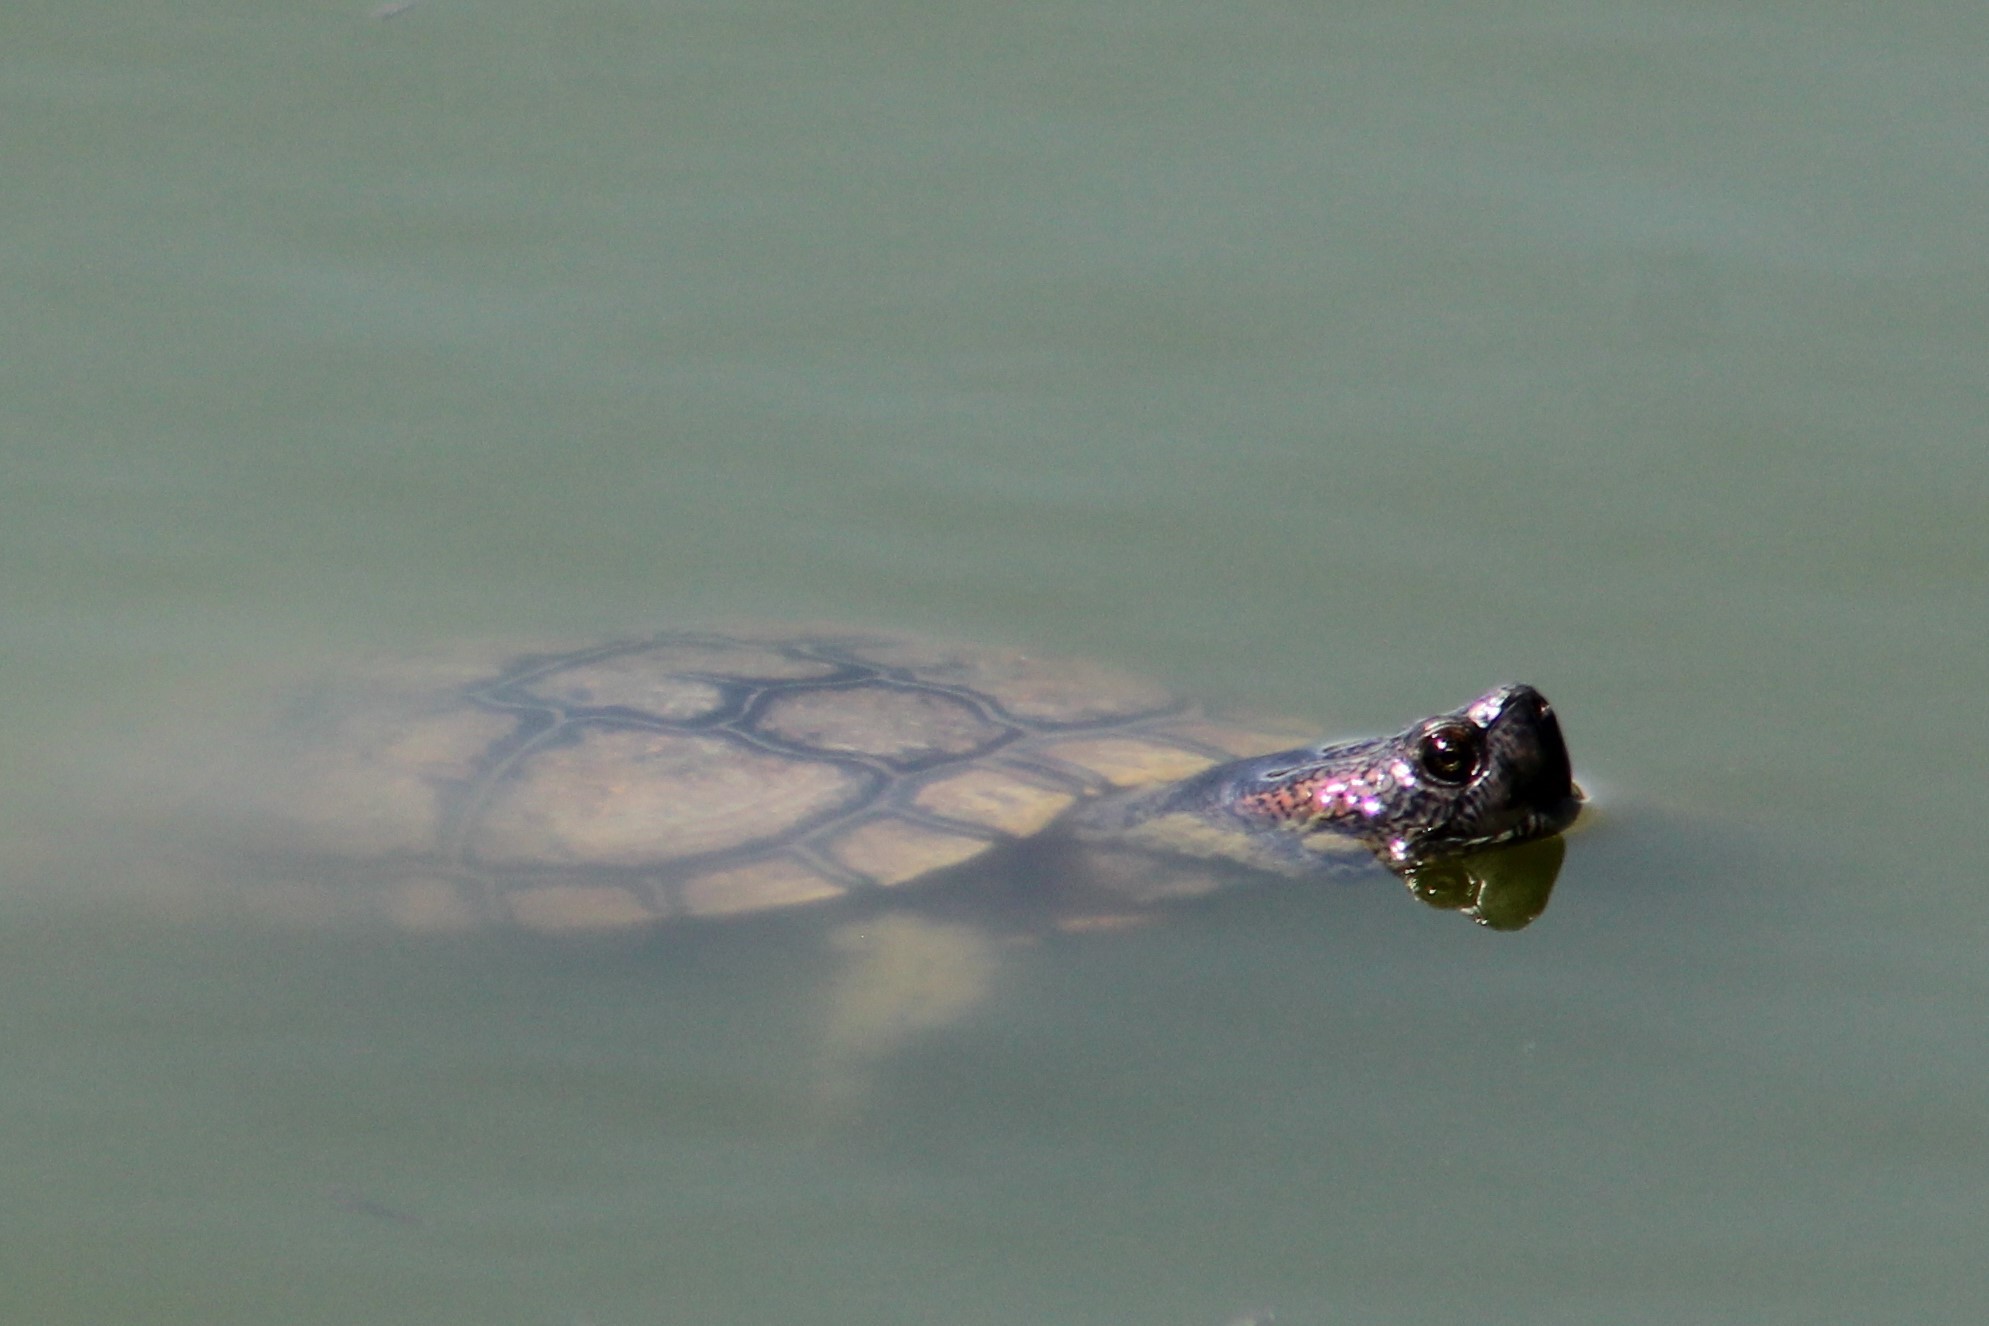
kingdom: Animalia
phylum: Chordata
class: Testudines
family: Emydidae
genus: Trachemys
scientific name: Trachemys scripta
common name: Slider
